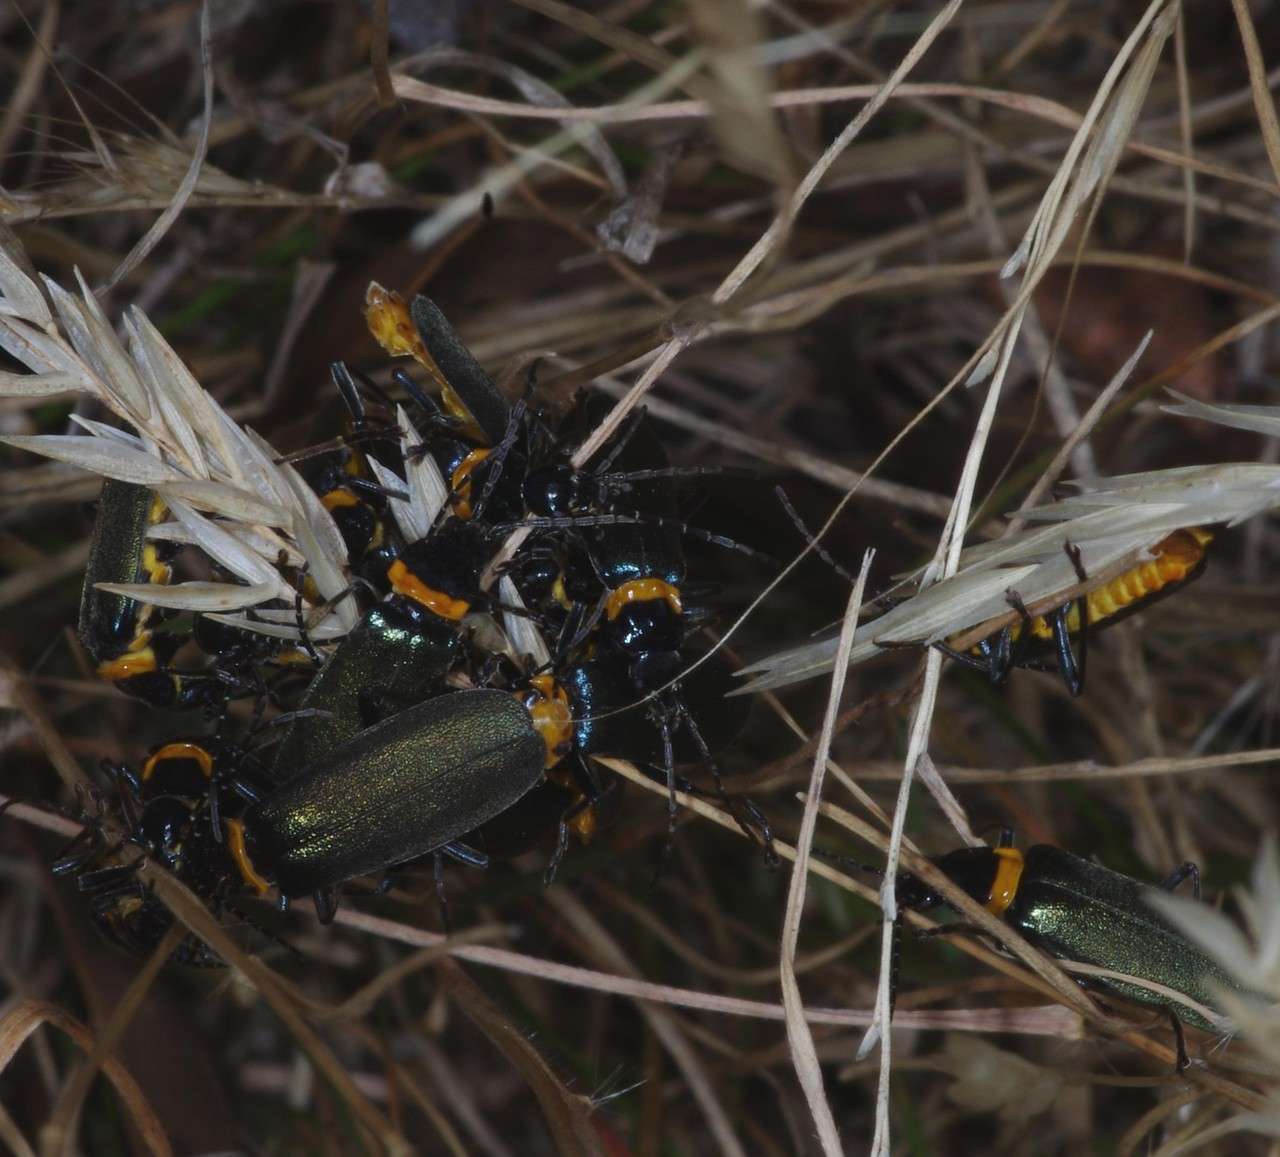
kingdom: Animalia
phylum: Arthropoda
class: Insecta
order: Coleoptera
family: Cantharidae
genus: Chauliognathus
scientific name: Chauliognathus
